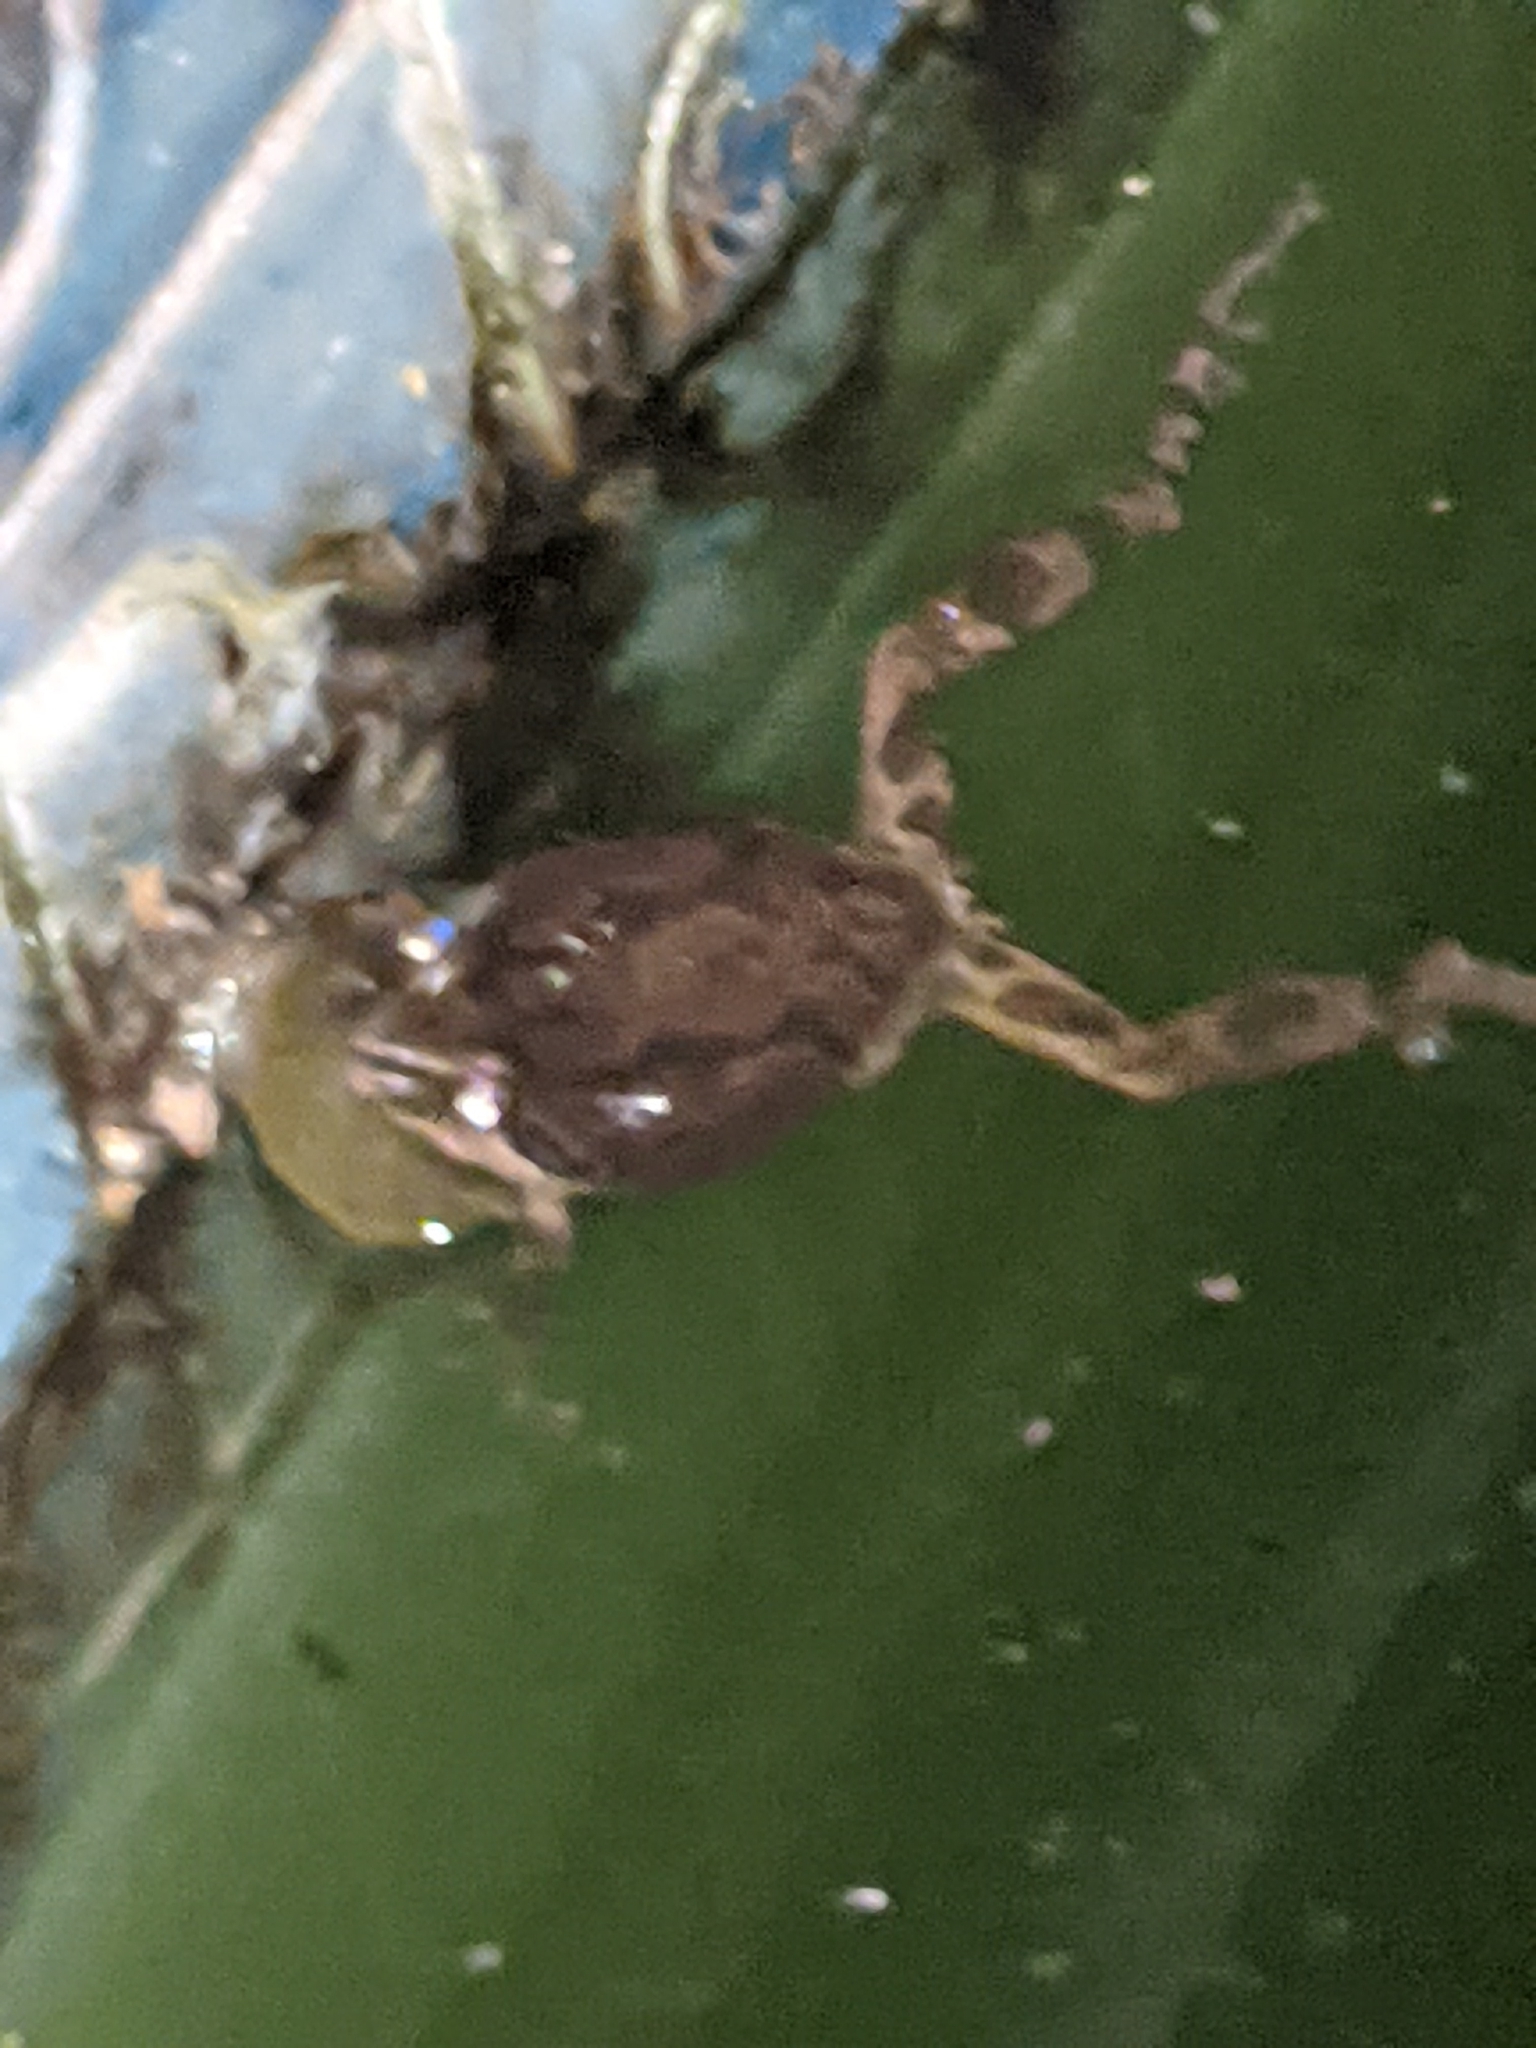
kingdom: Animalia
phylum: Chordata
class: Amphibia
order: Anura
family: Hylidae
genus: Pseudacris
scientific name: Pseudacris regilla
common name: Pacific chorus frog
